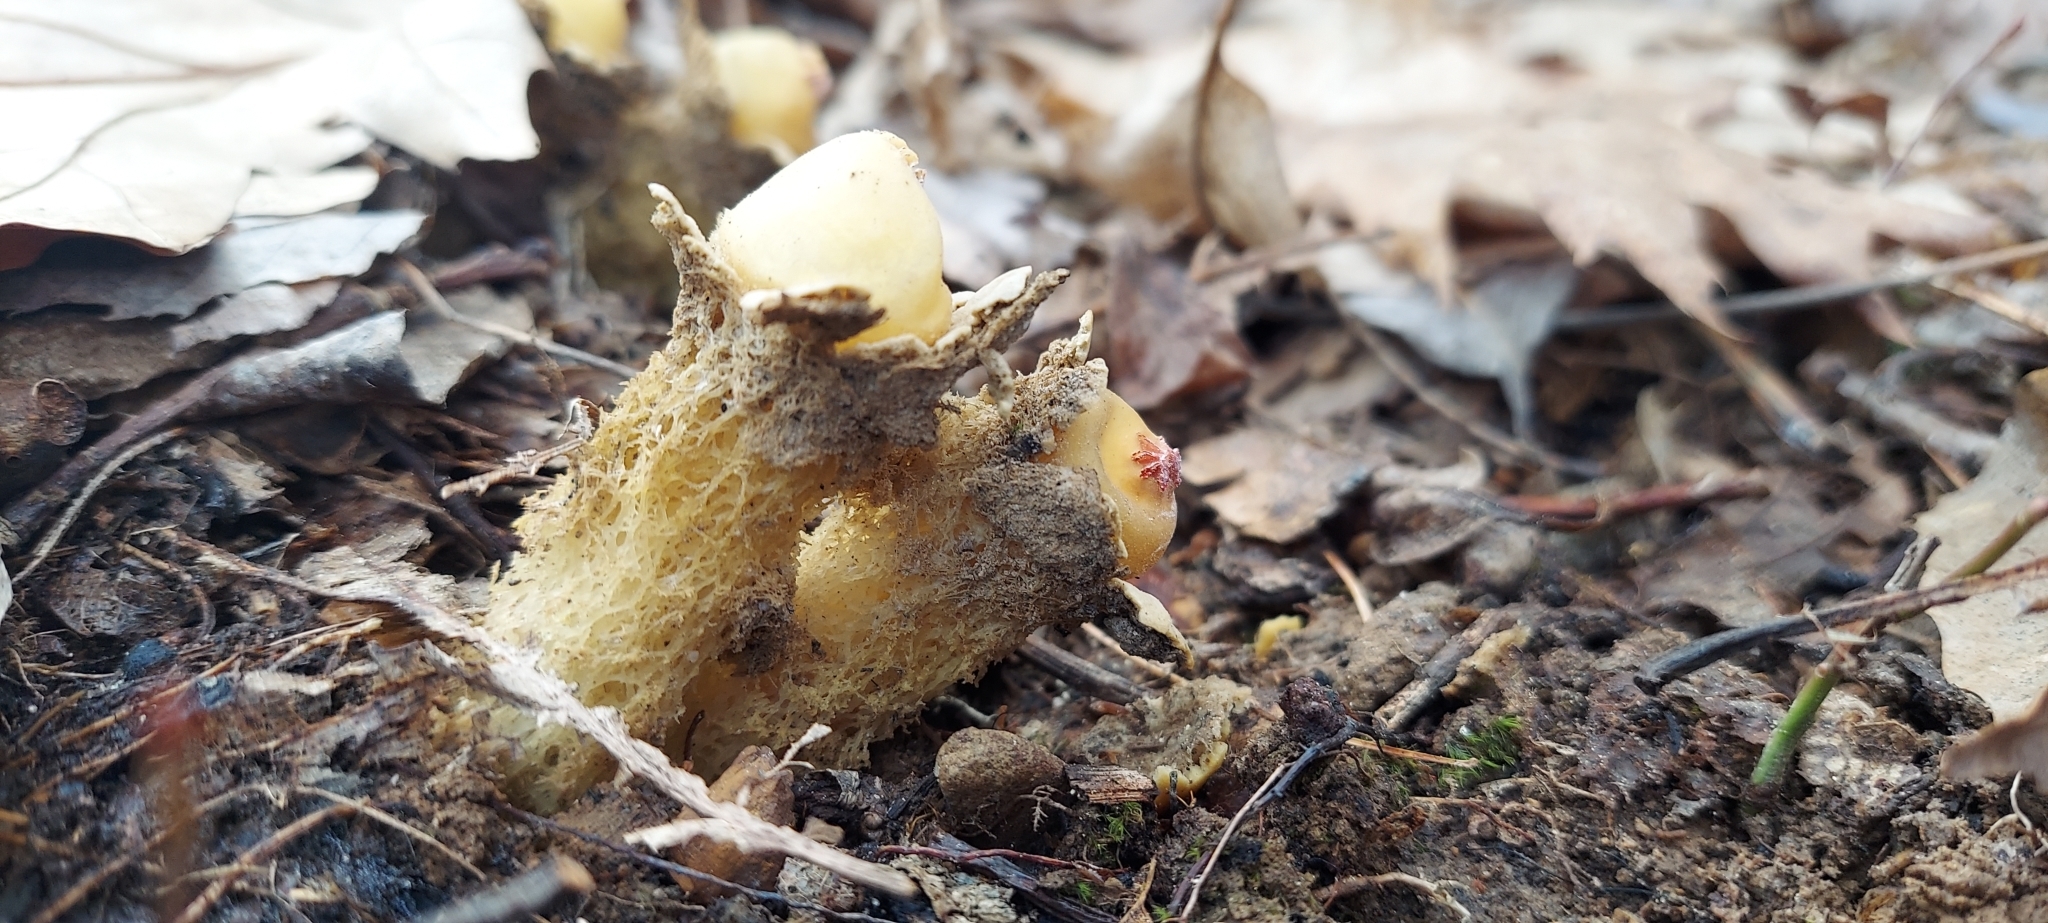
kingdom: Fungi
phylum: Basidiomycota
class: Agaricomycetes
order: Boletales
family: Calostomataceae
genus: Calostoma
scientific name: Calostoma lutescens
